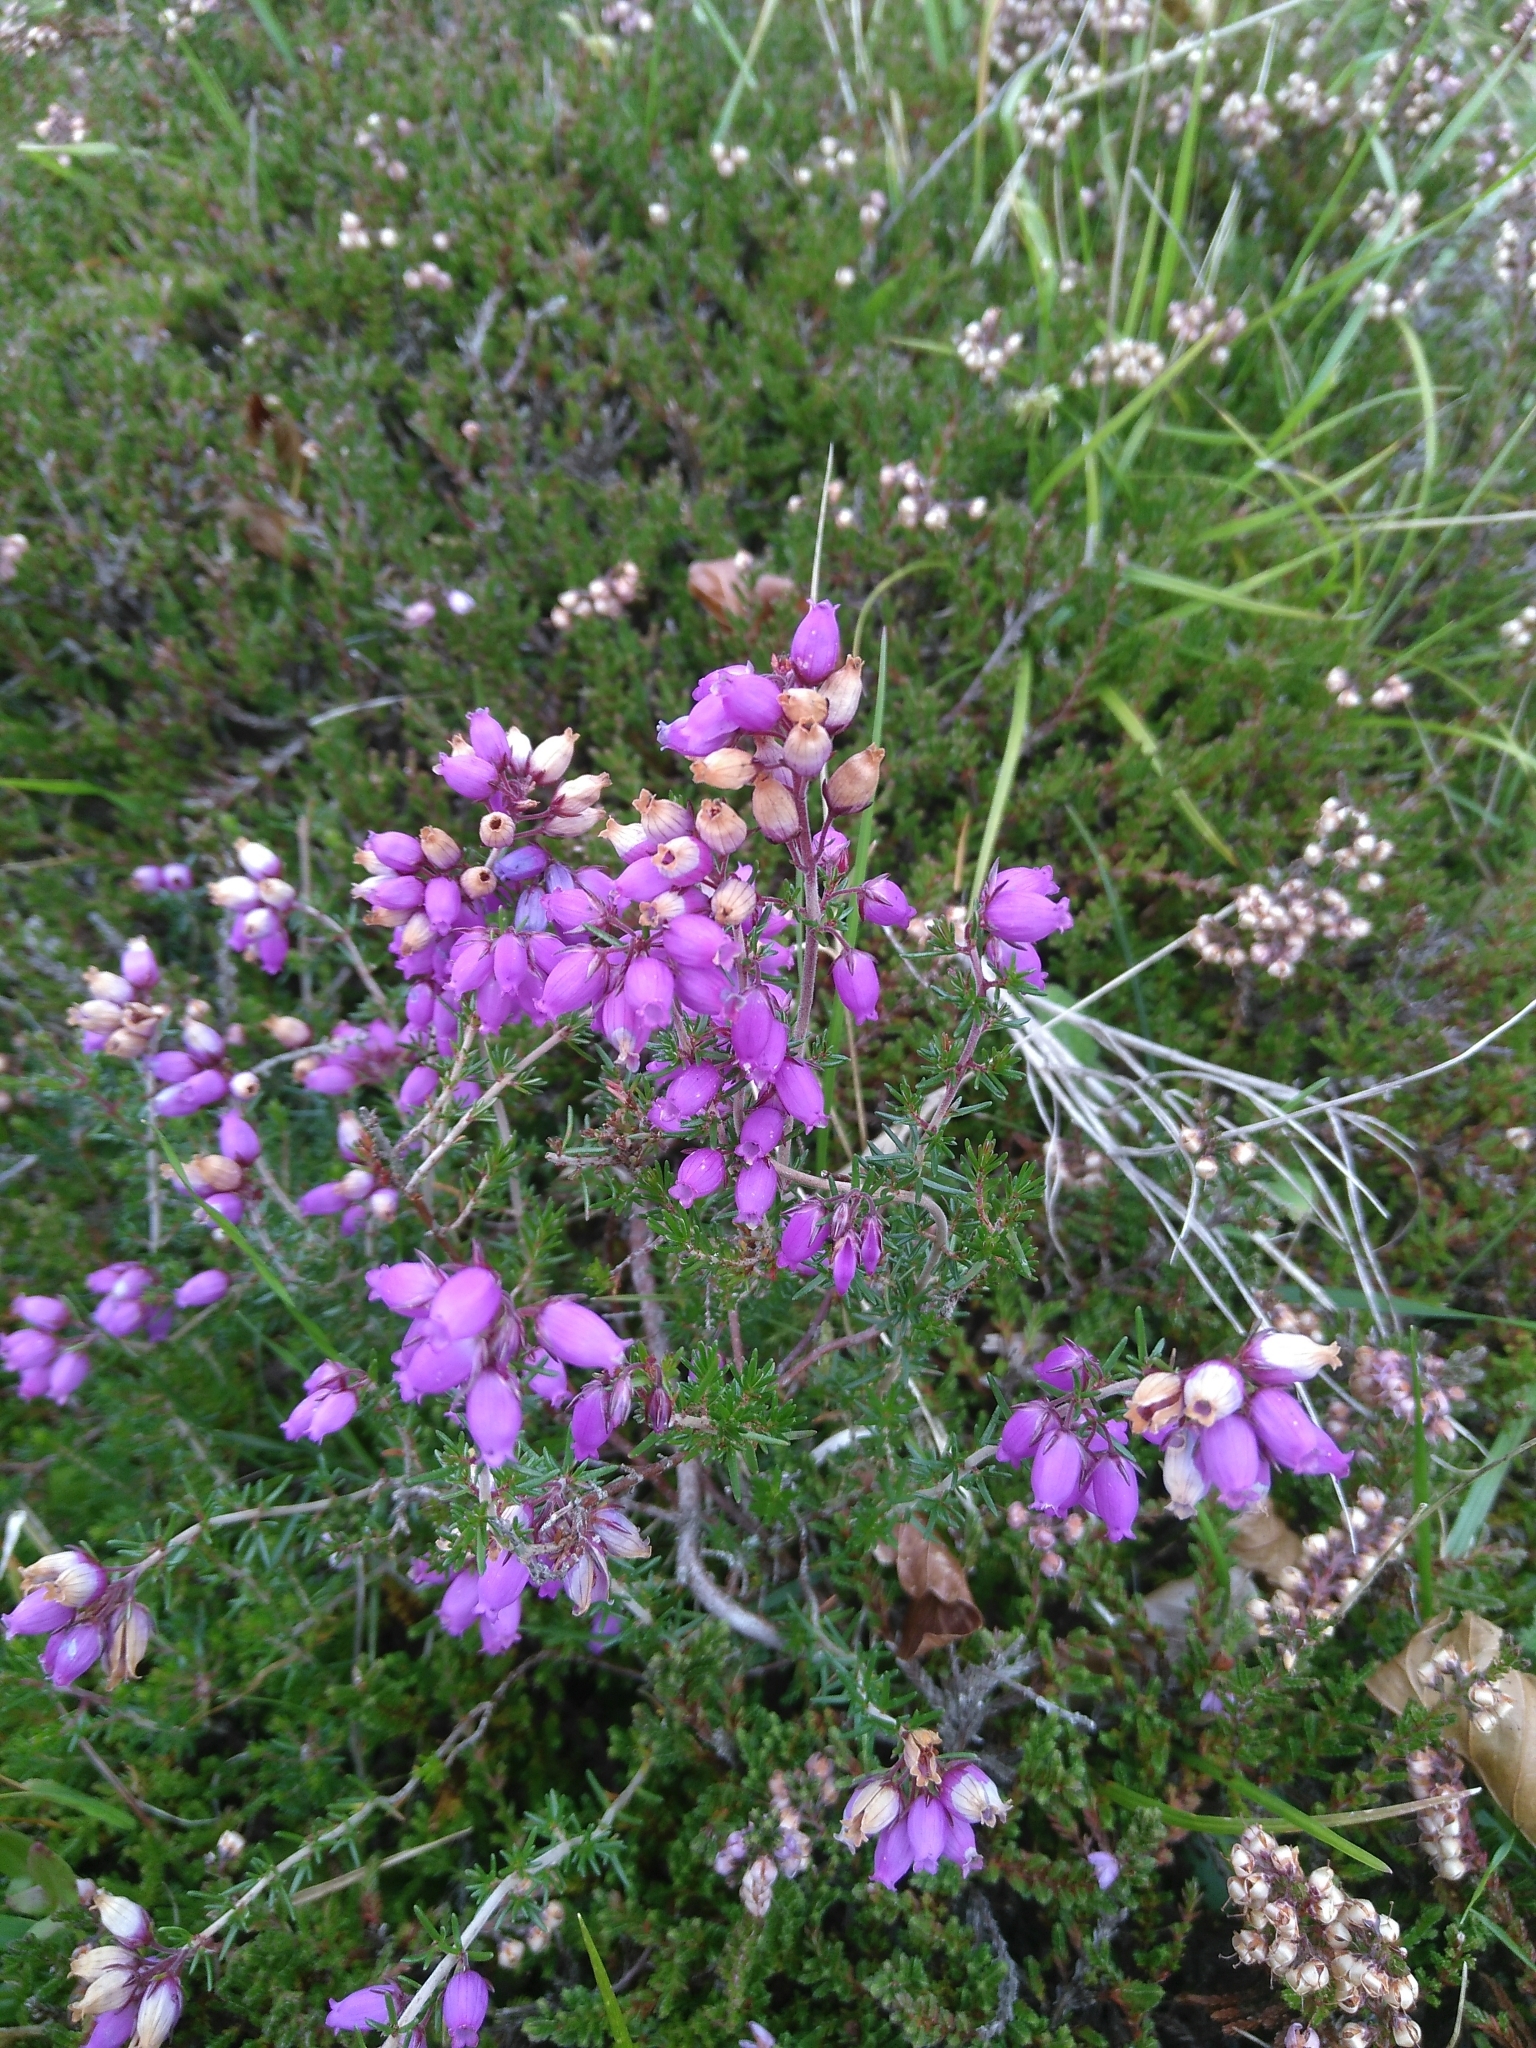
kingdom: Plantae
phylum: Tracheophyta
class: Magnoliopsida
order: Ericales
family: Ericaceae
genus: Erica
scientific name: Erica cinerea
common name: Bell heather
